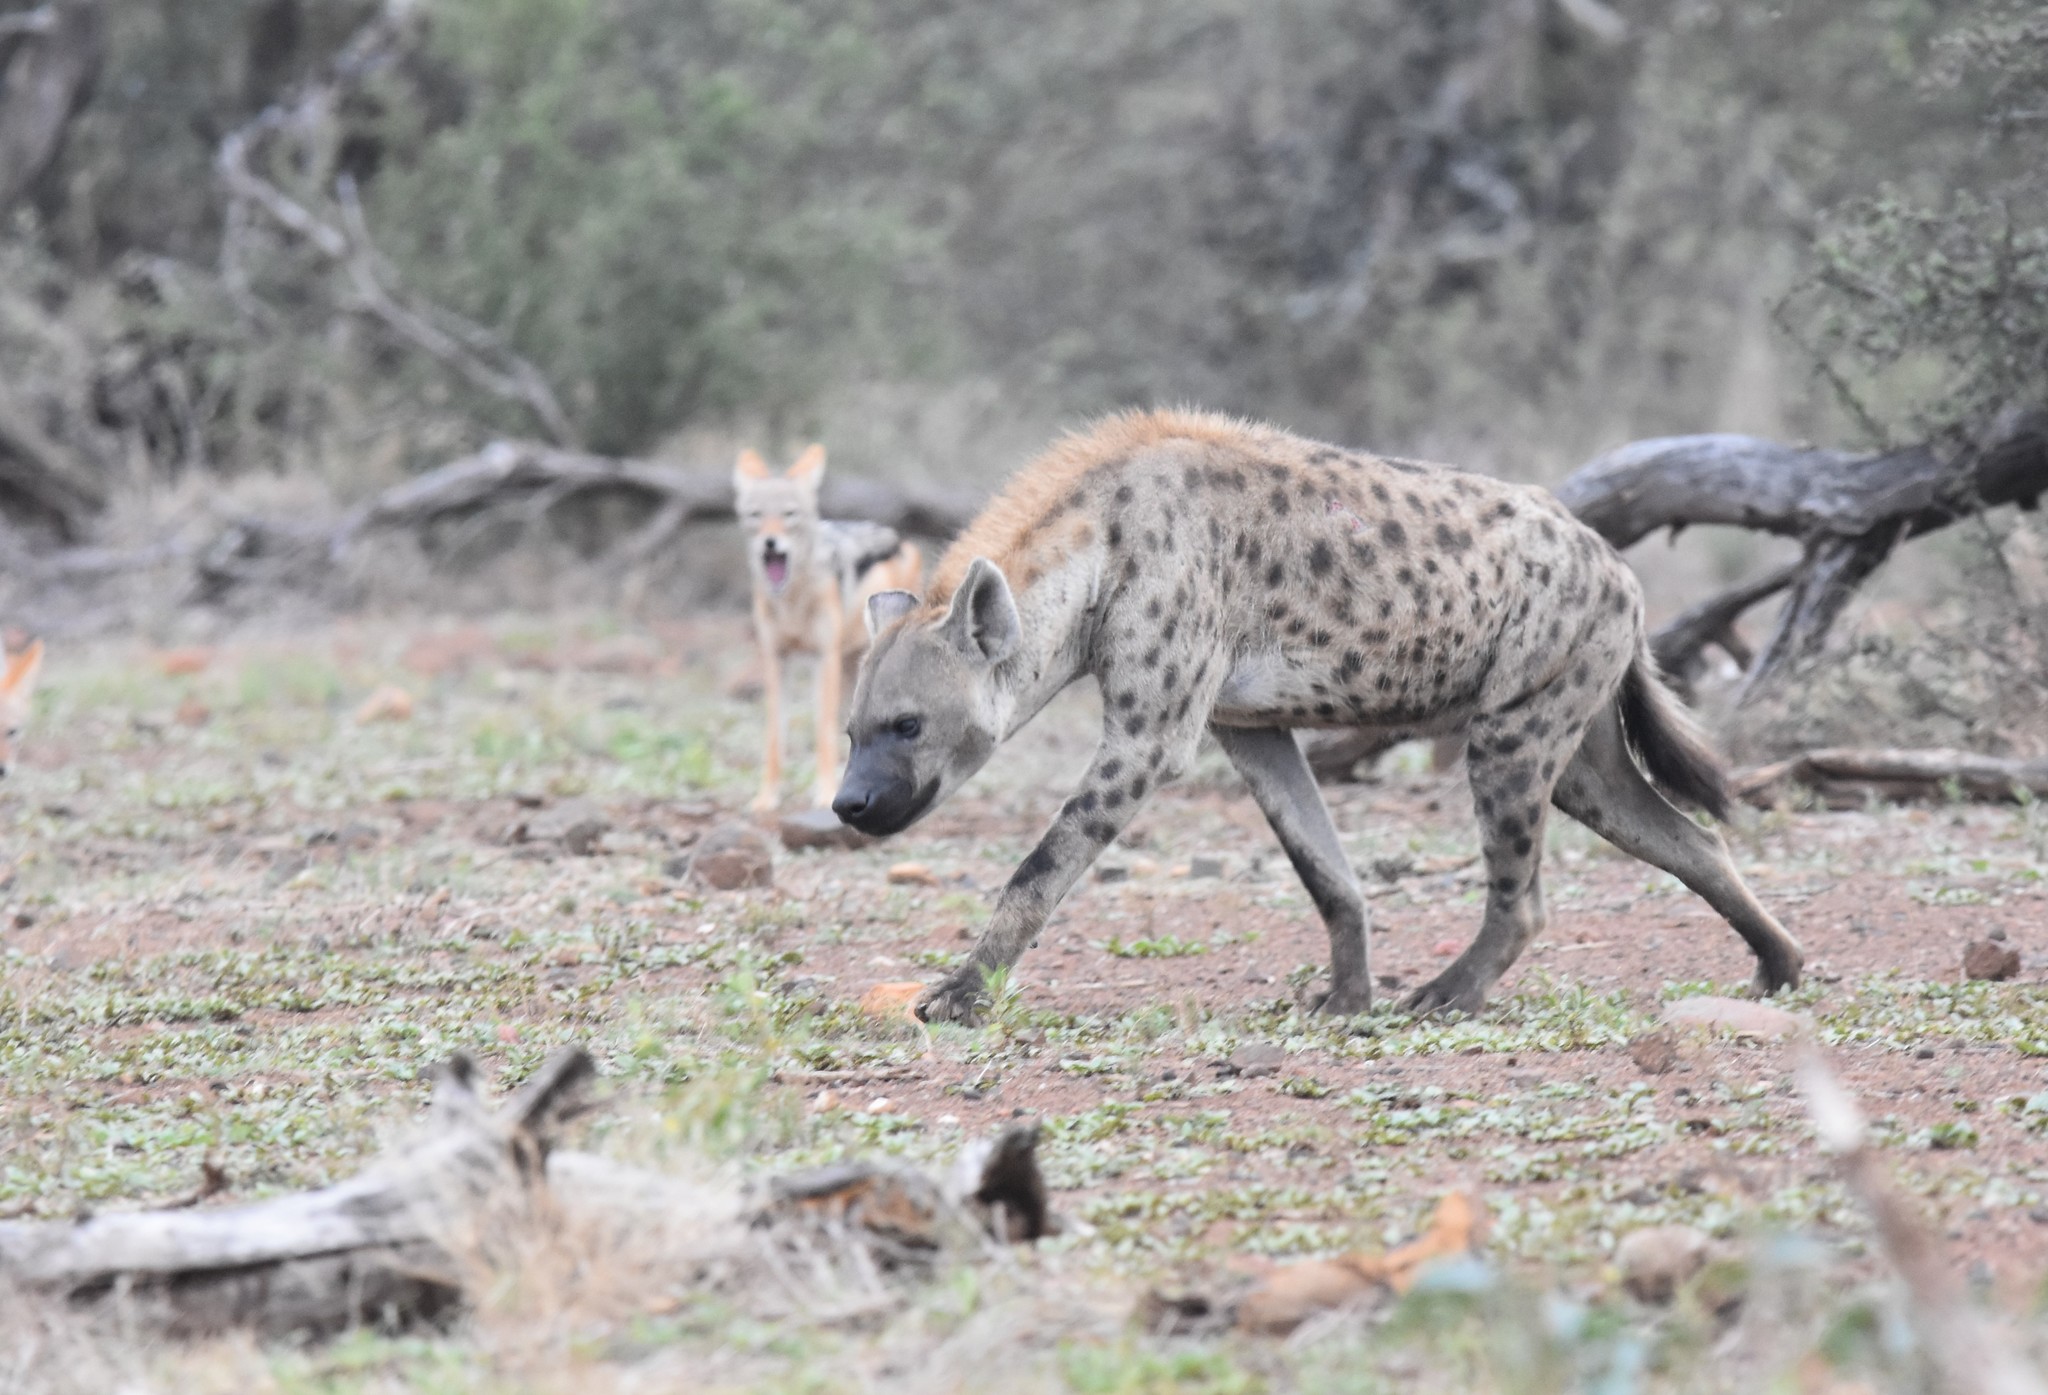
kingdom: Animalia
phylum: Chordata
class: Mammalia
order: Carnivora
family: Hyaenidae
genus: Crocuta
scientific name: Crocuta crocuta
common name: Spotted hyaena
